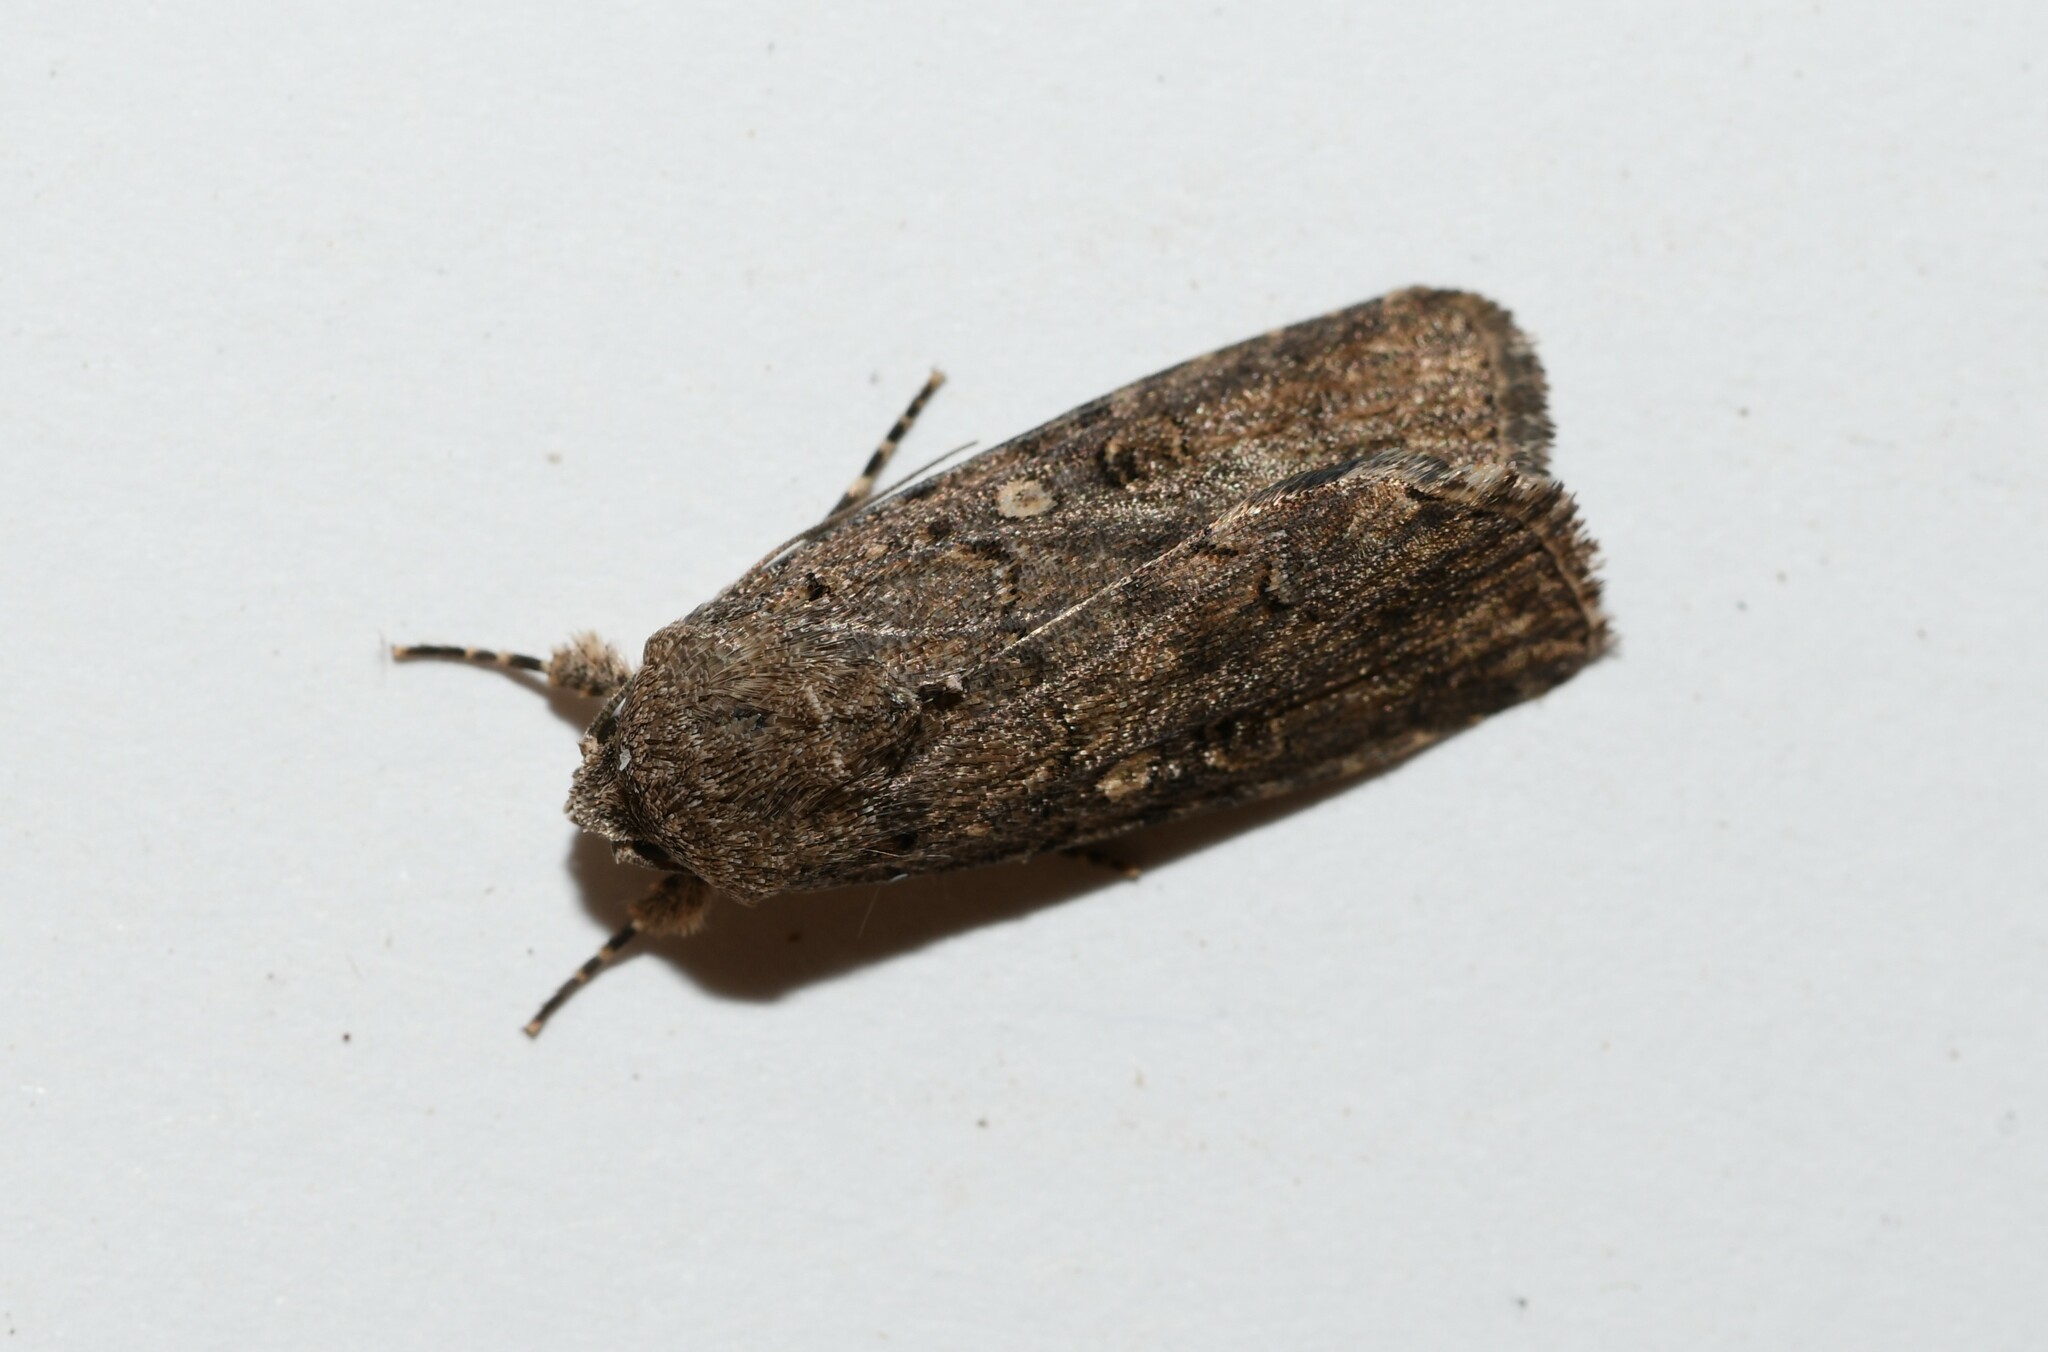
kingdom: Animalia
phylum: Arthropoda
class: Insecta
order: Lepidoptera
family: Noctuidae
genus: Spodoptera
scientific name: Spodoptera cilium
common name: Dark mottled willow
